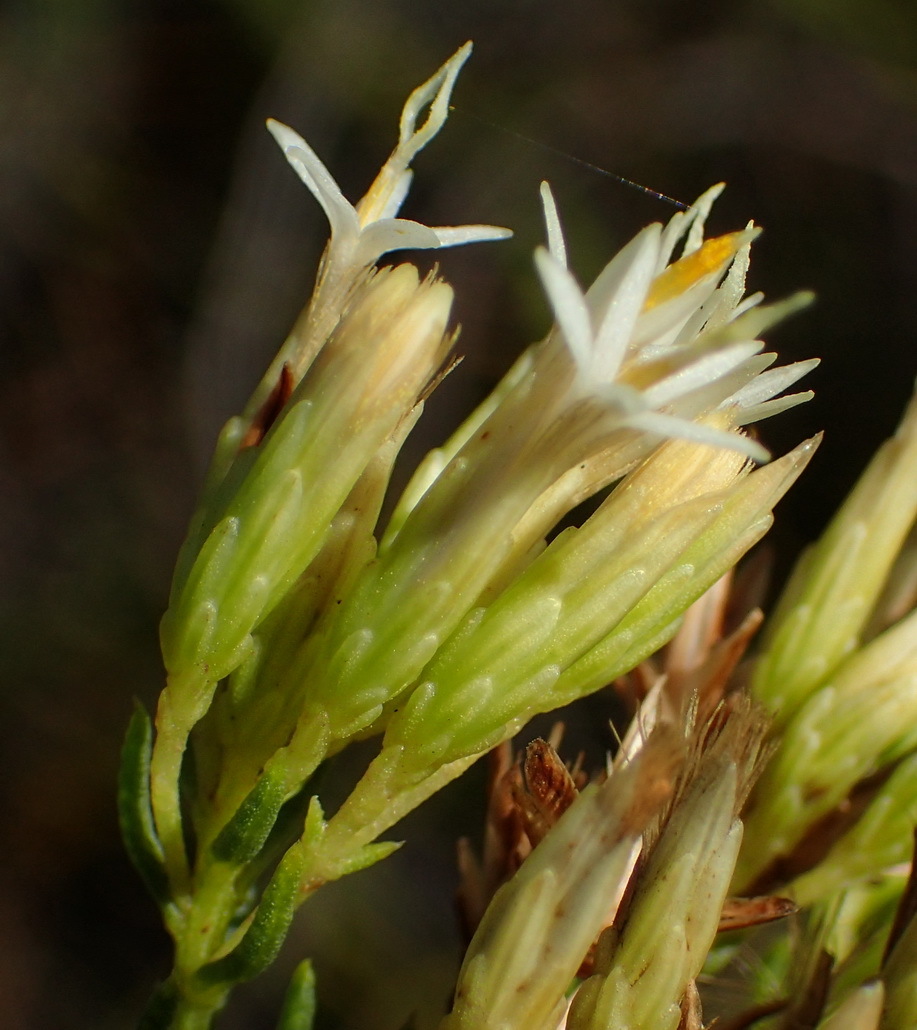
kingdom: Plantae
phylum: Tracheophyta
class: Magnoliopsida
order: Asterales
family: Asteraceae
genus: Pteronia
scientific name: Pteronia teretifolia
